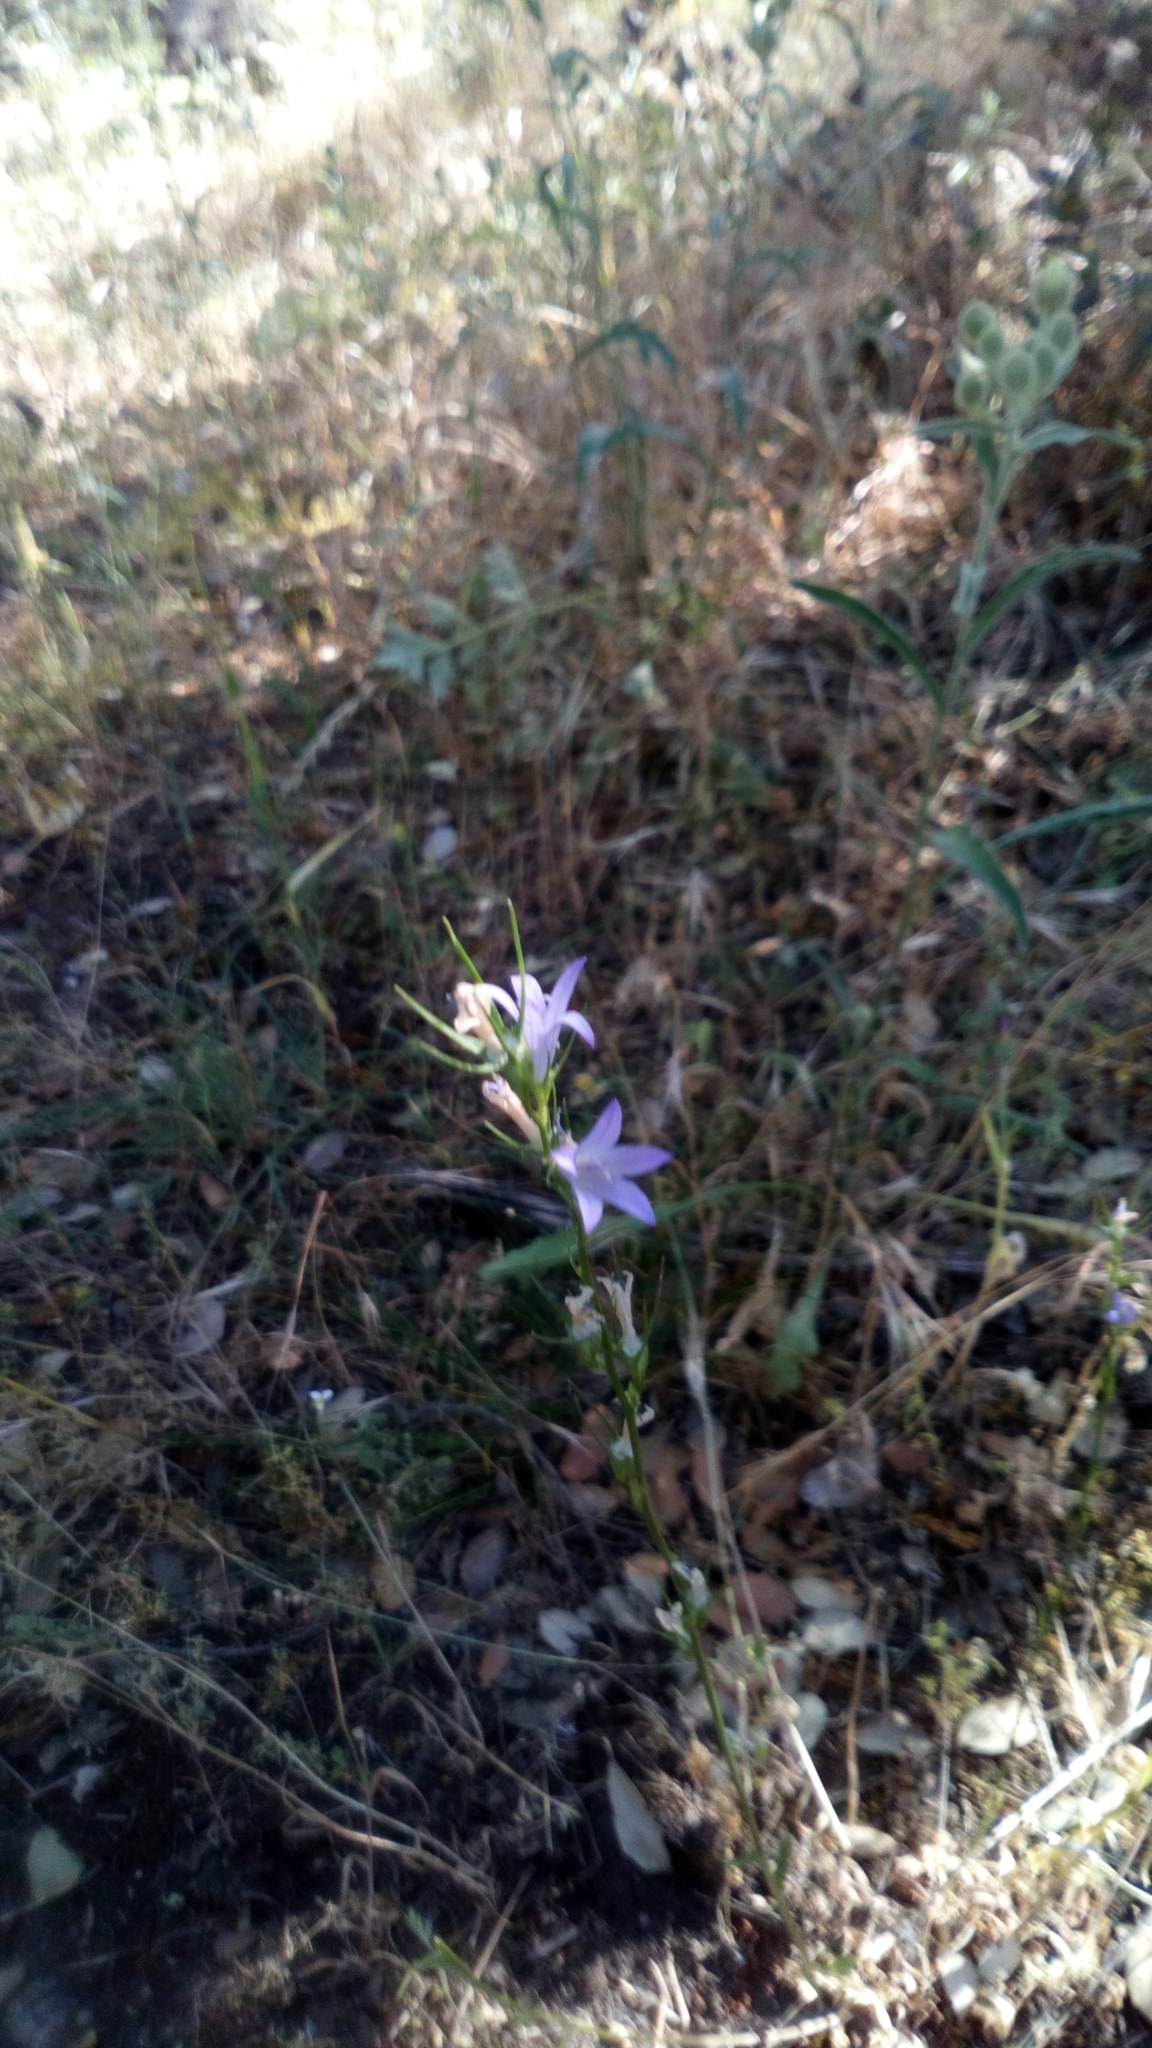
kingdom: Plantae
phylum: Tracheophyta
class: Magnoliopsida
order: Asterales
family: Campanulaceae
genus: Campanula
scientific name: Campanula rapunculus
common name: Rampion bellflower
